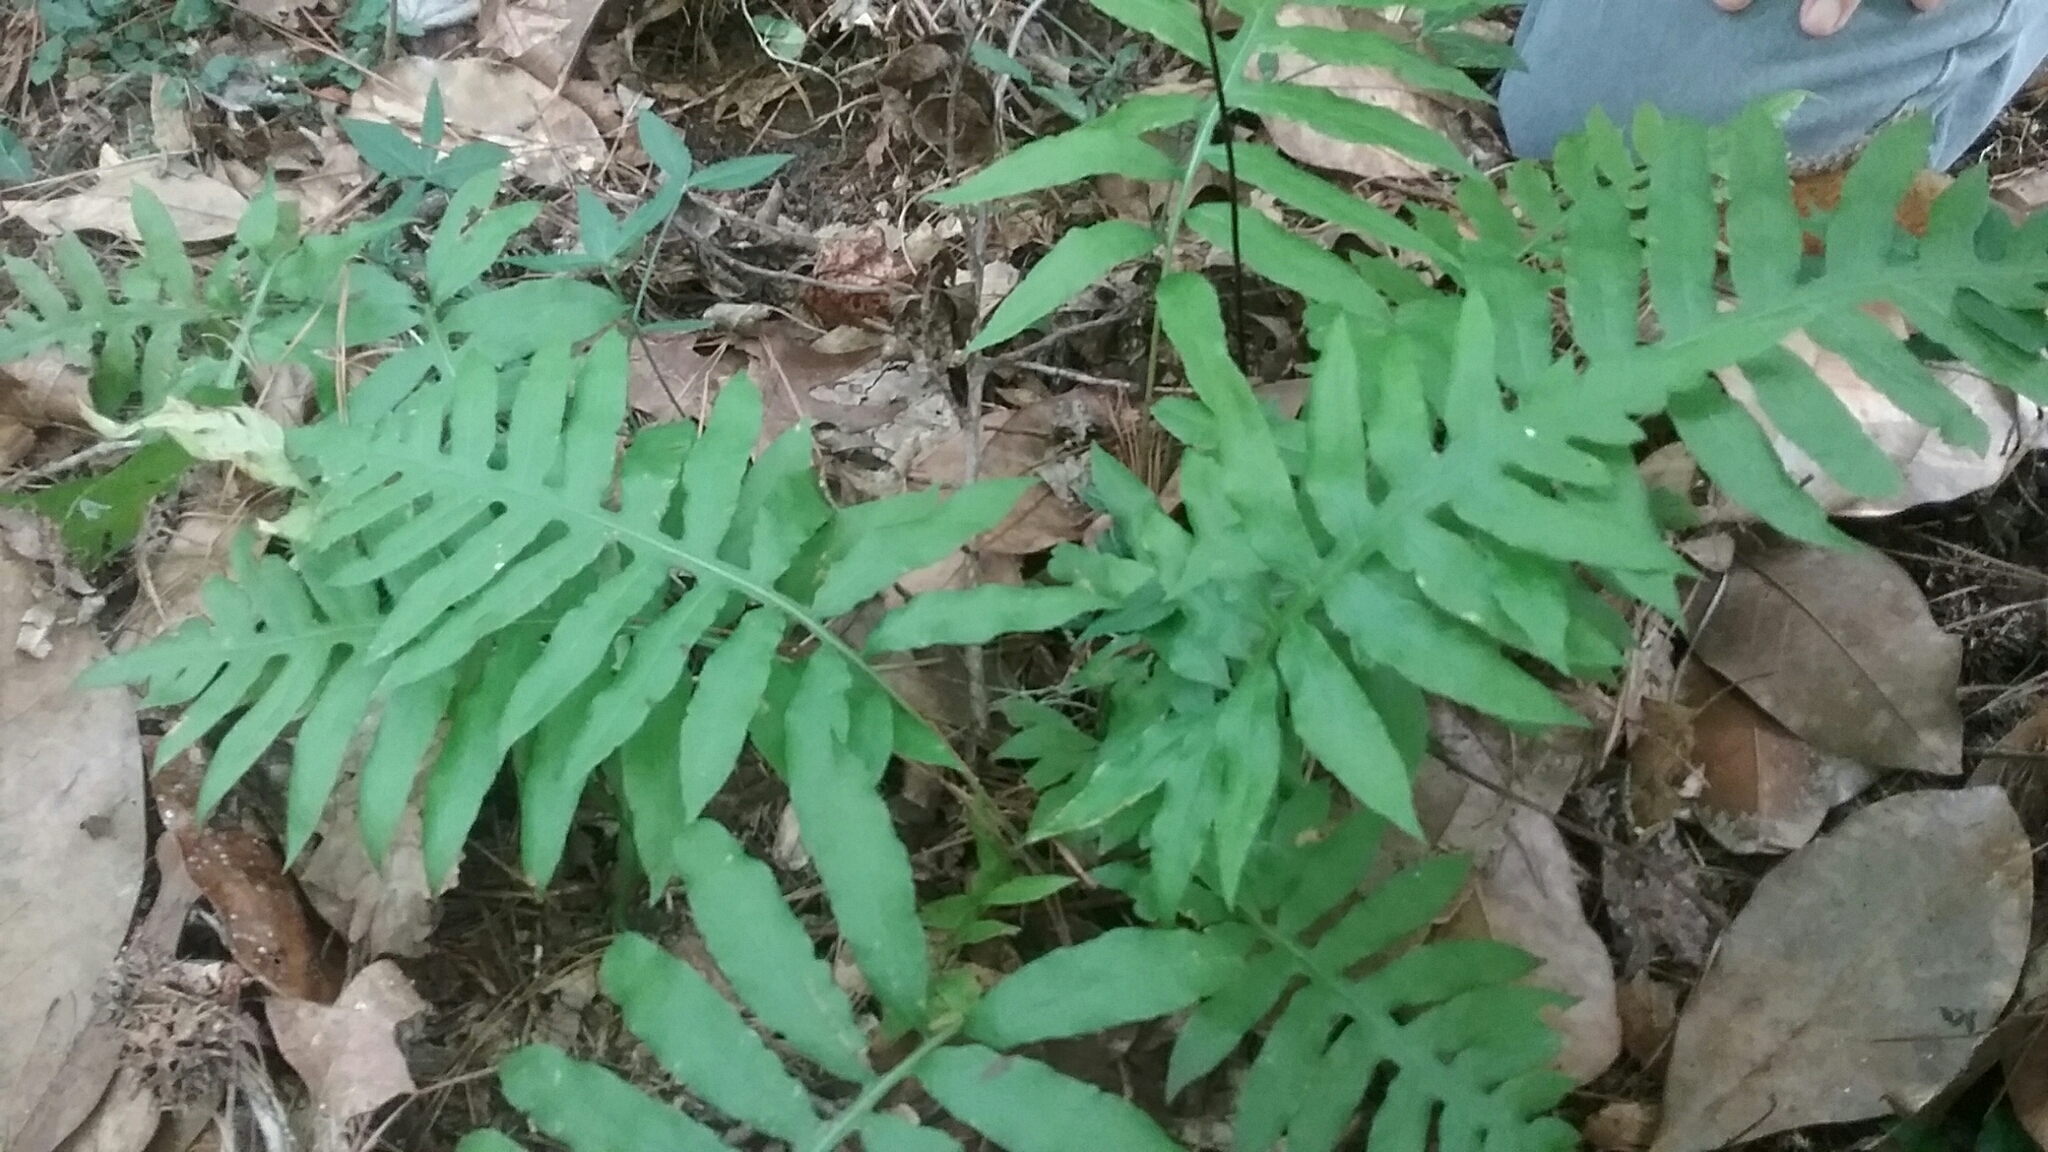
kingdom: Plantae
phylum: Tracheophyta
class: Polypodiopsida
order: Polypodiales
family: Blechnaceae
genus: Lorinseria
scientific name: Lorinseria areolata
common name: Dwarf chain fern
